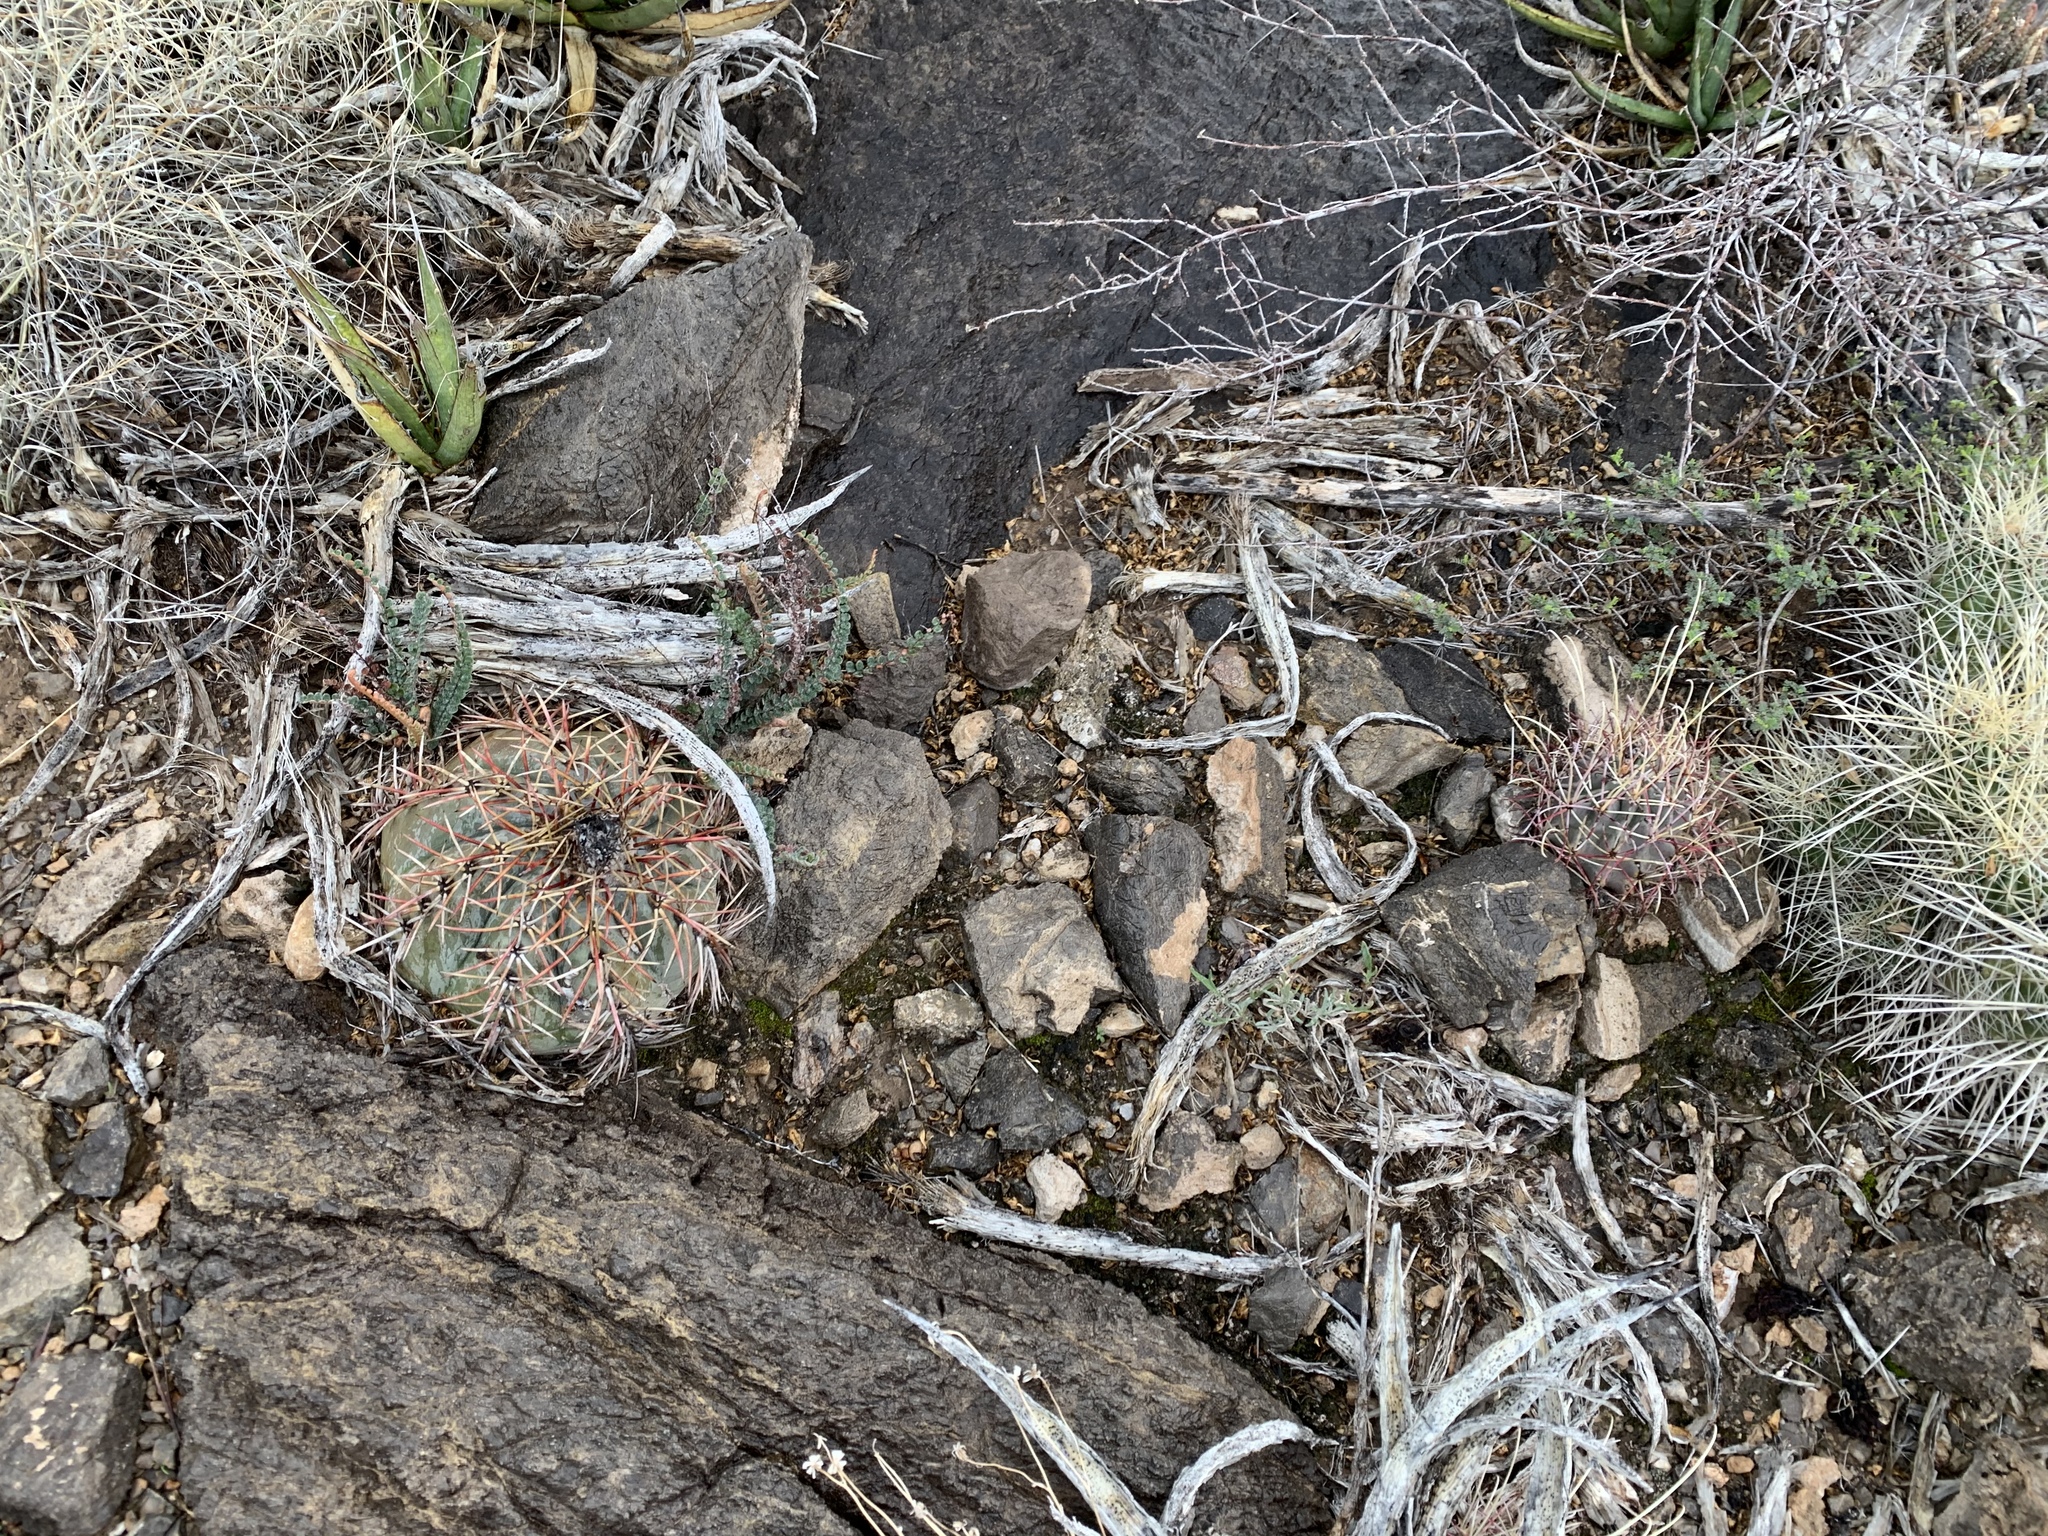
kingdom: Plantae
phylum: Tracheophyta
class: Magnoliopsida
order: Caryophyllales
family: Cactaceae
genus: Echinocactus
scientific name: Echinocactus horizonthalonius
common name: Devilshead
